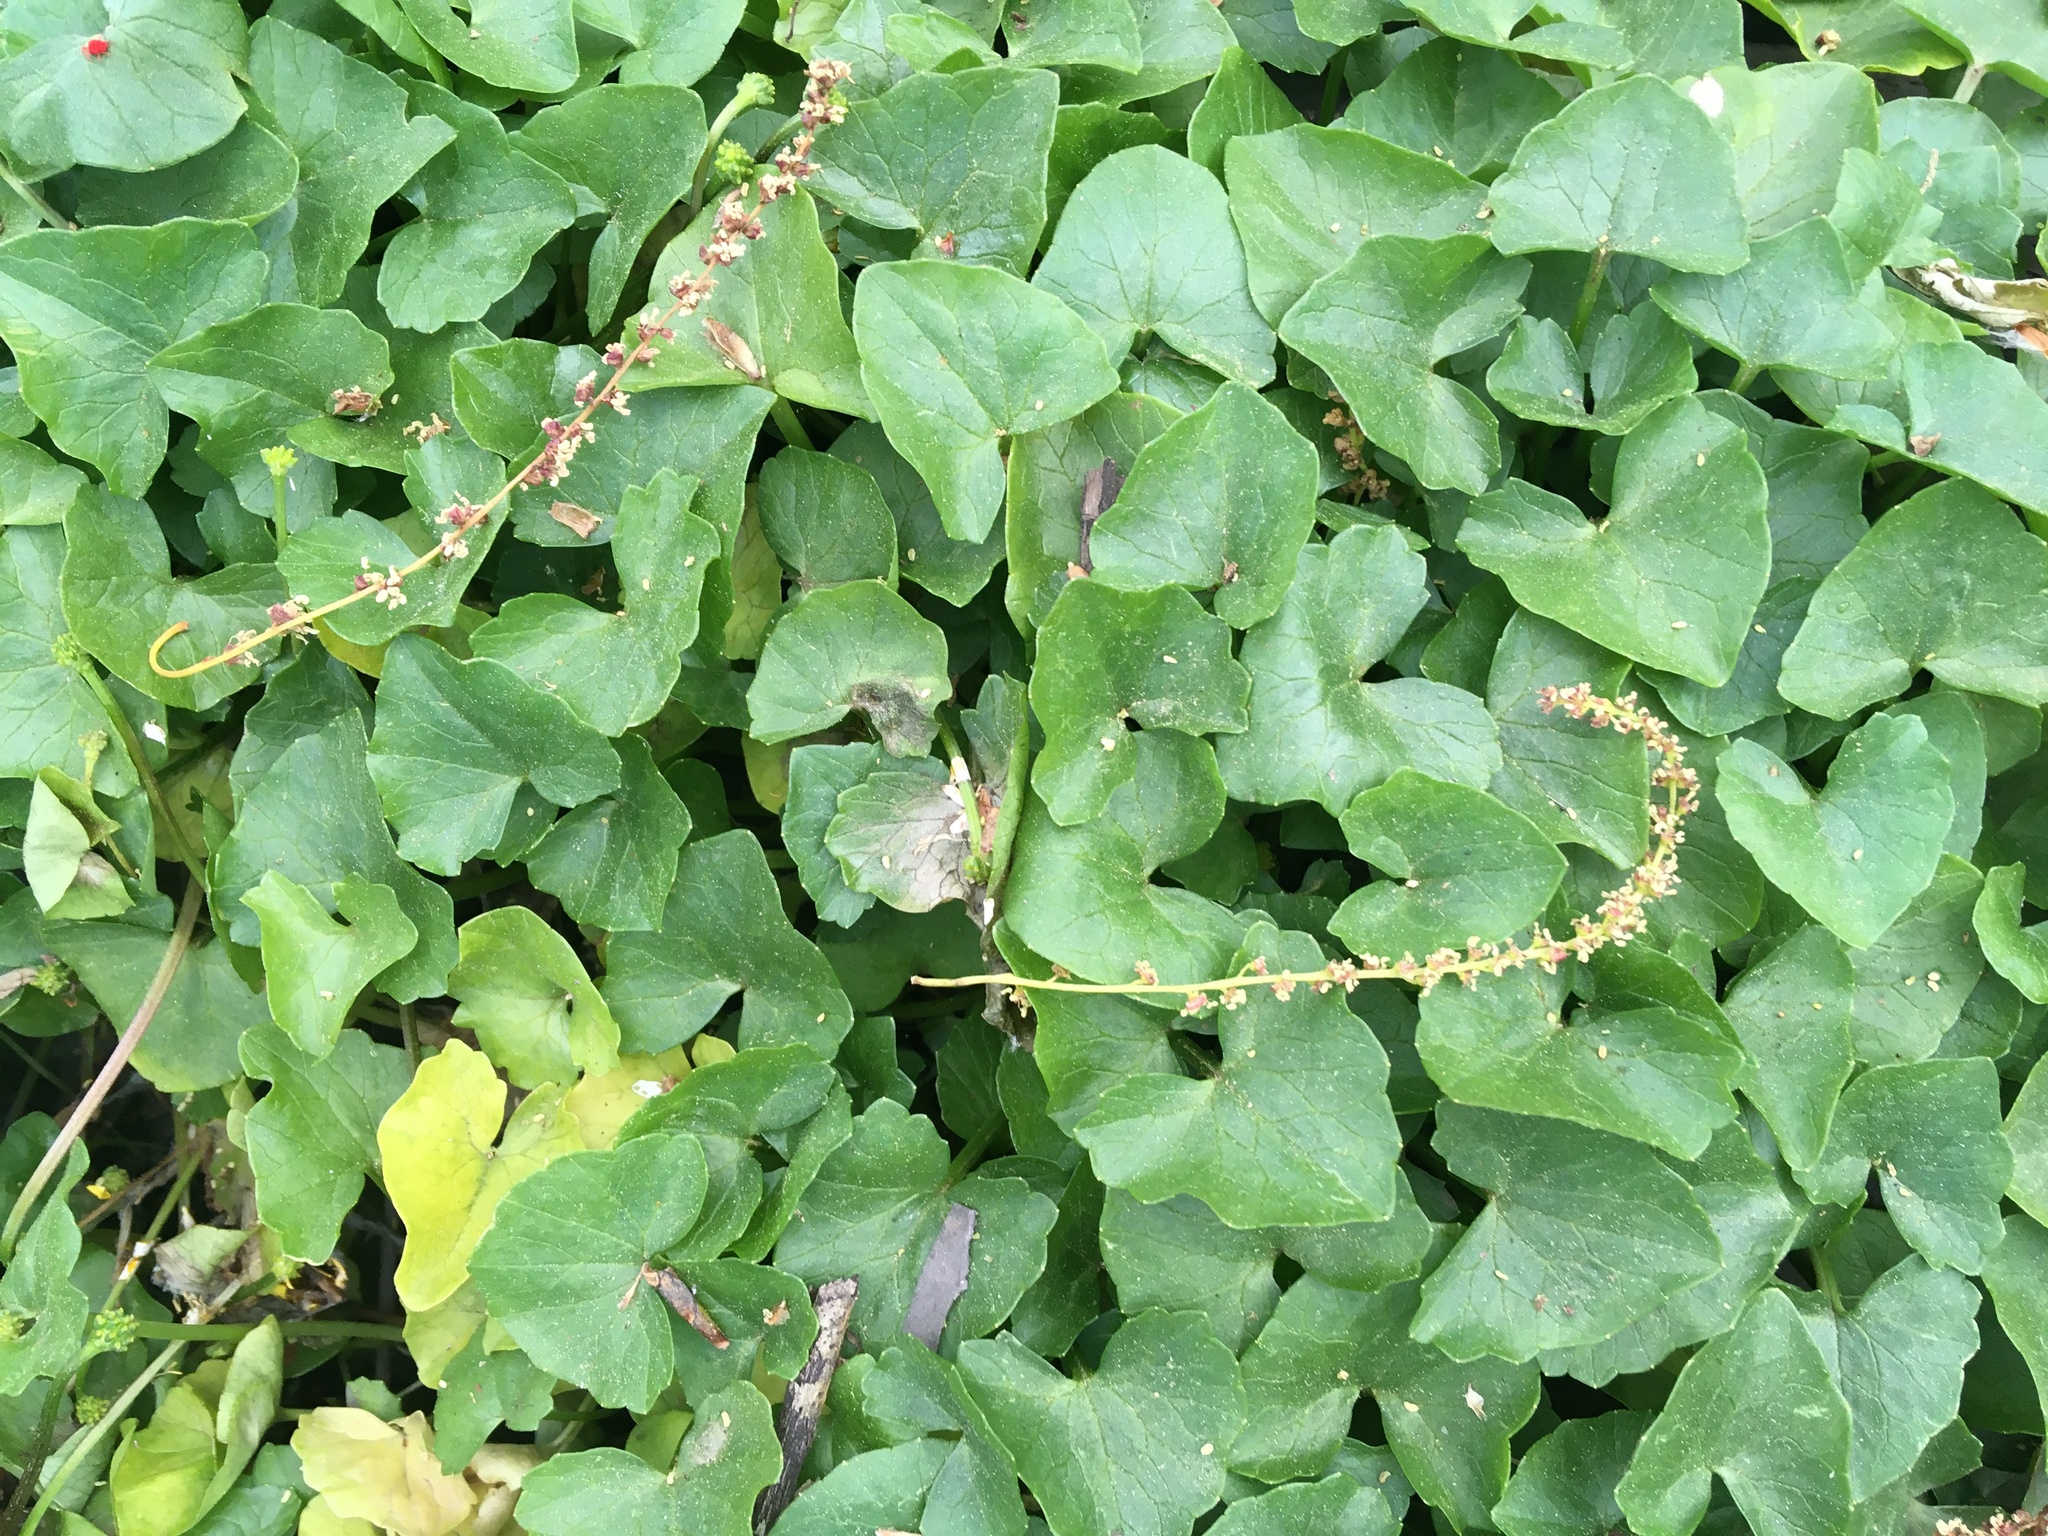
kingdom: Plantae
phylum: Tracheophyta
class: Magnoliopsida
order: Ranunculales
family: Ranunculaceae
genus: Ficaria
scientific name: Ficaria verna
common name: Lesser celandine
